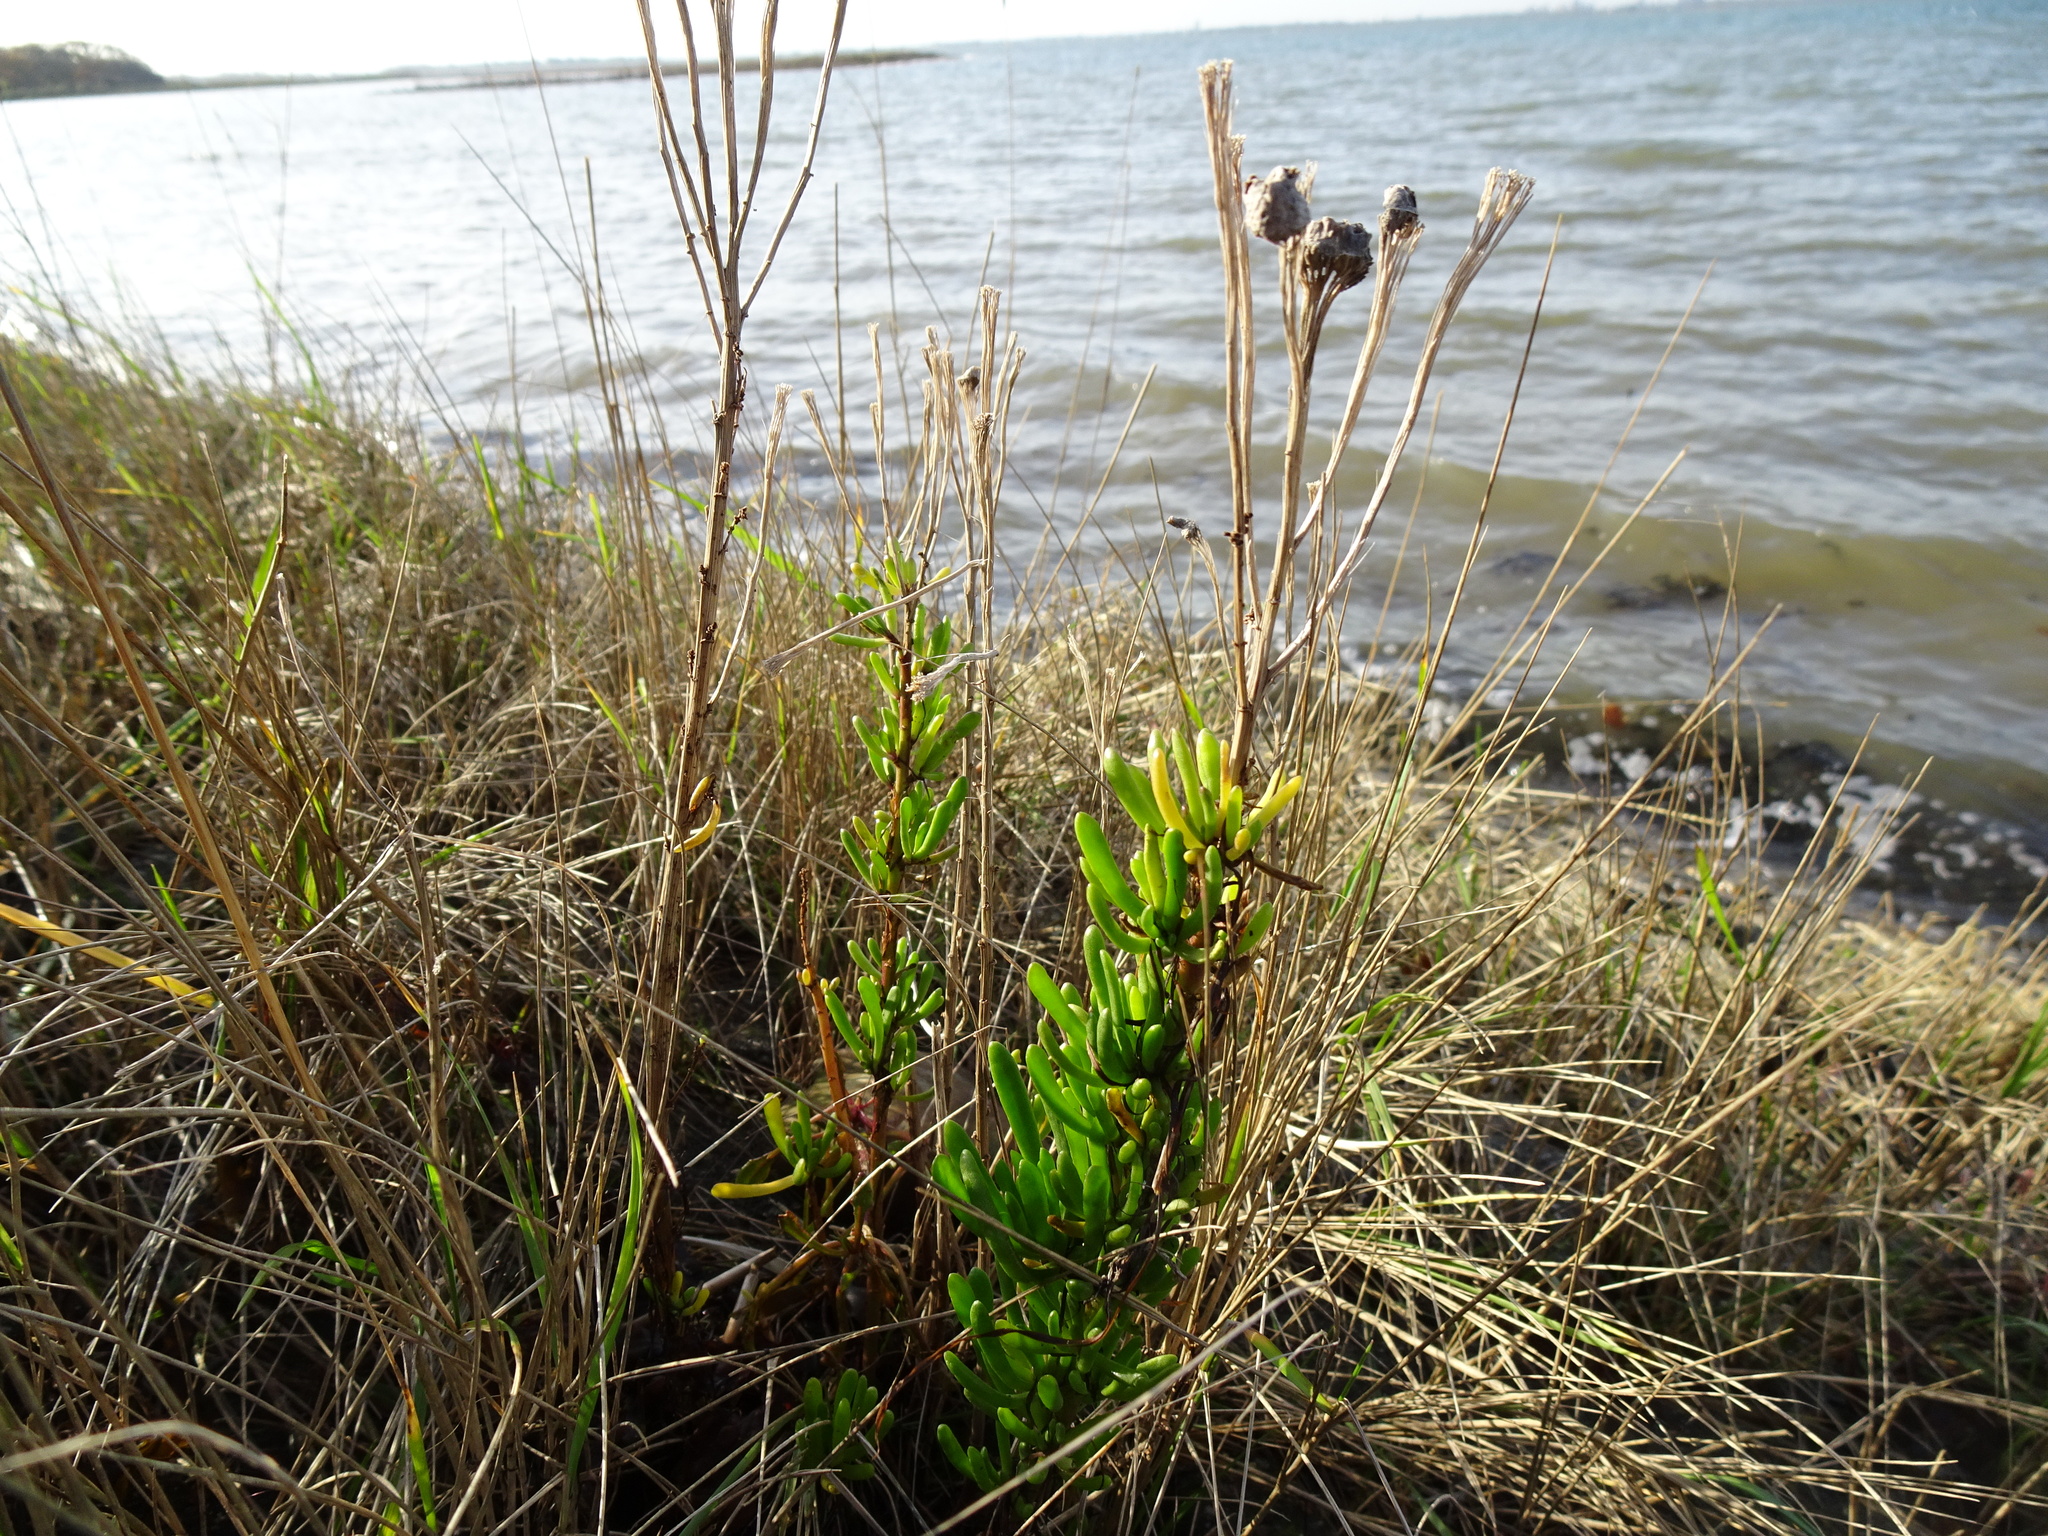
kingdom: Plantae
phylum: Tracheophyta
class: Magnoliopsida
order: Asterales
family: Asteraceae
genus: Limbarda
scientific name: Limbarda crithmoides
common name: Golden samphire
